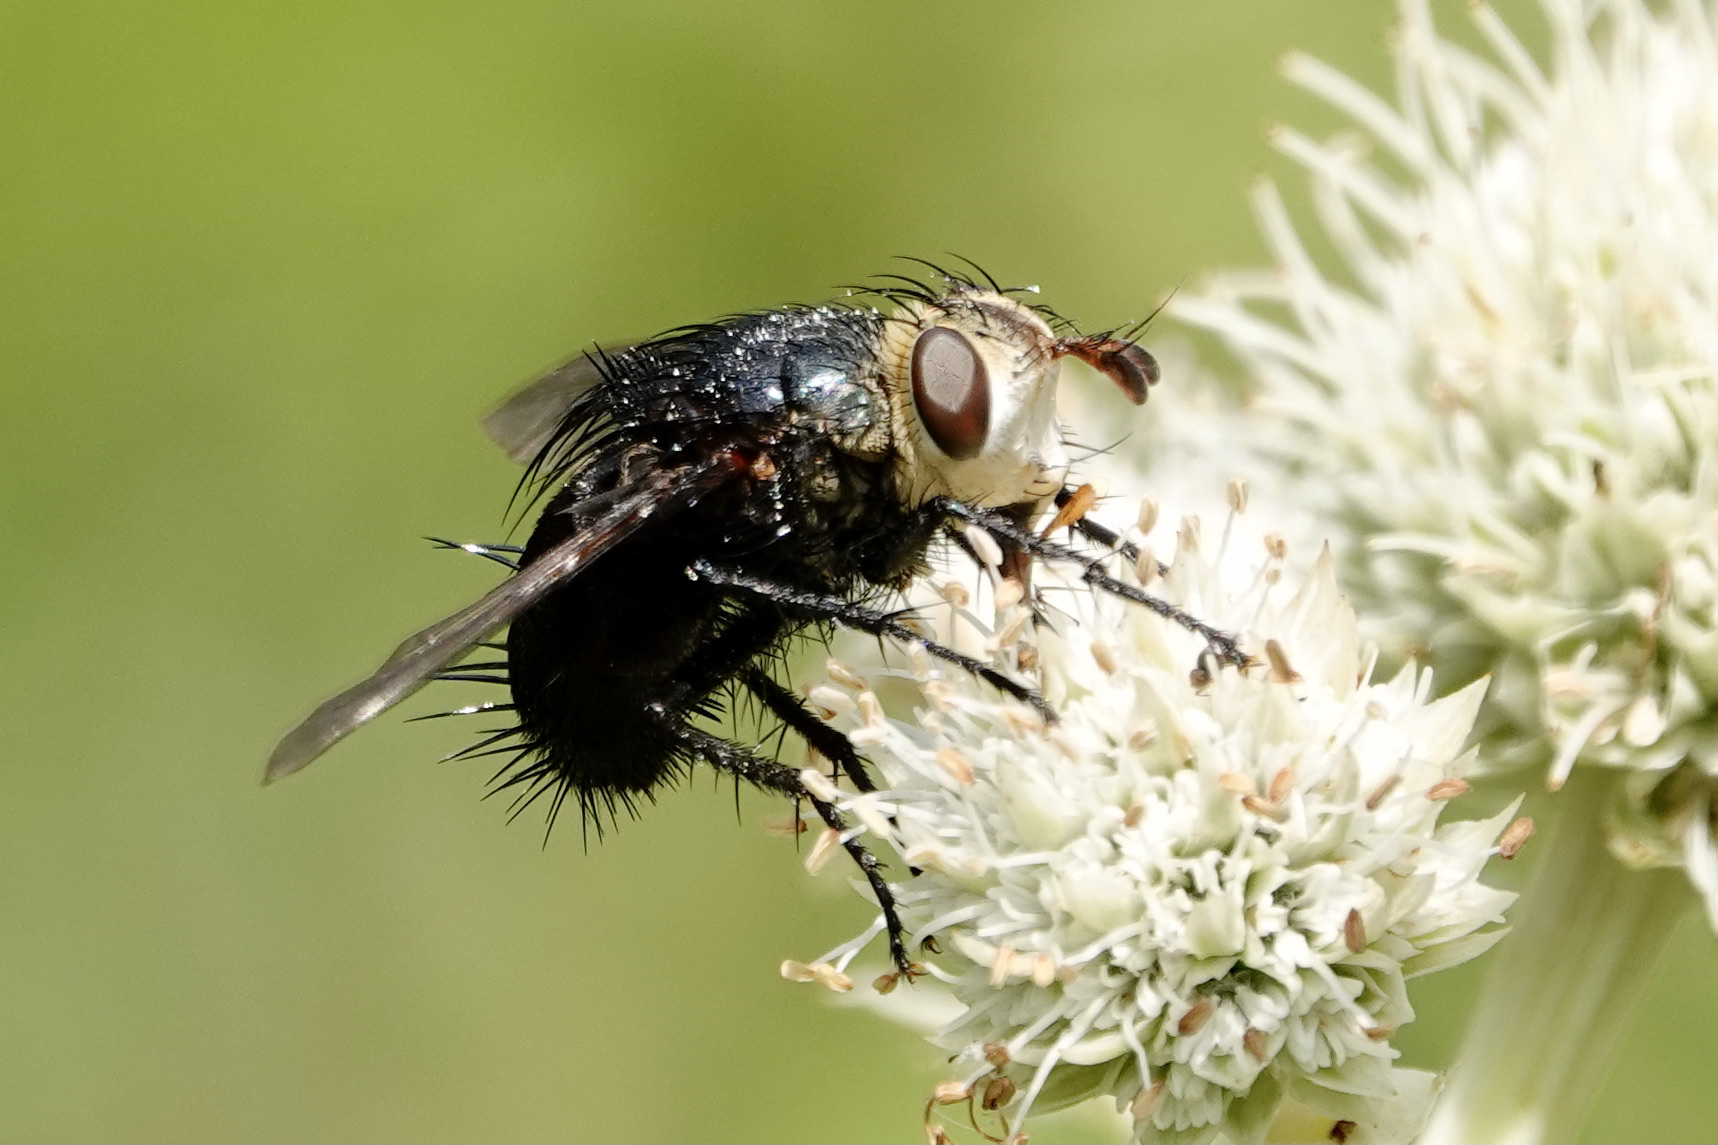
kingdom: Animalia
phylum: Arthropoda
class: Insecta
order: Diptera
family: Tachinidae
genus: Juriniopsis
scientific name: Juriniopsis adusta
